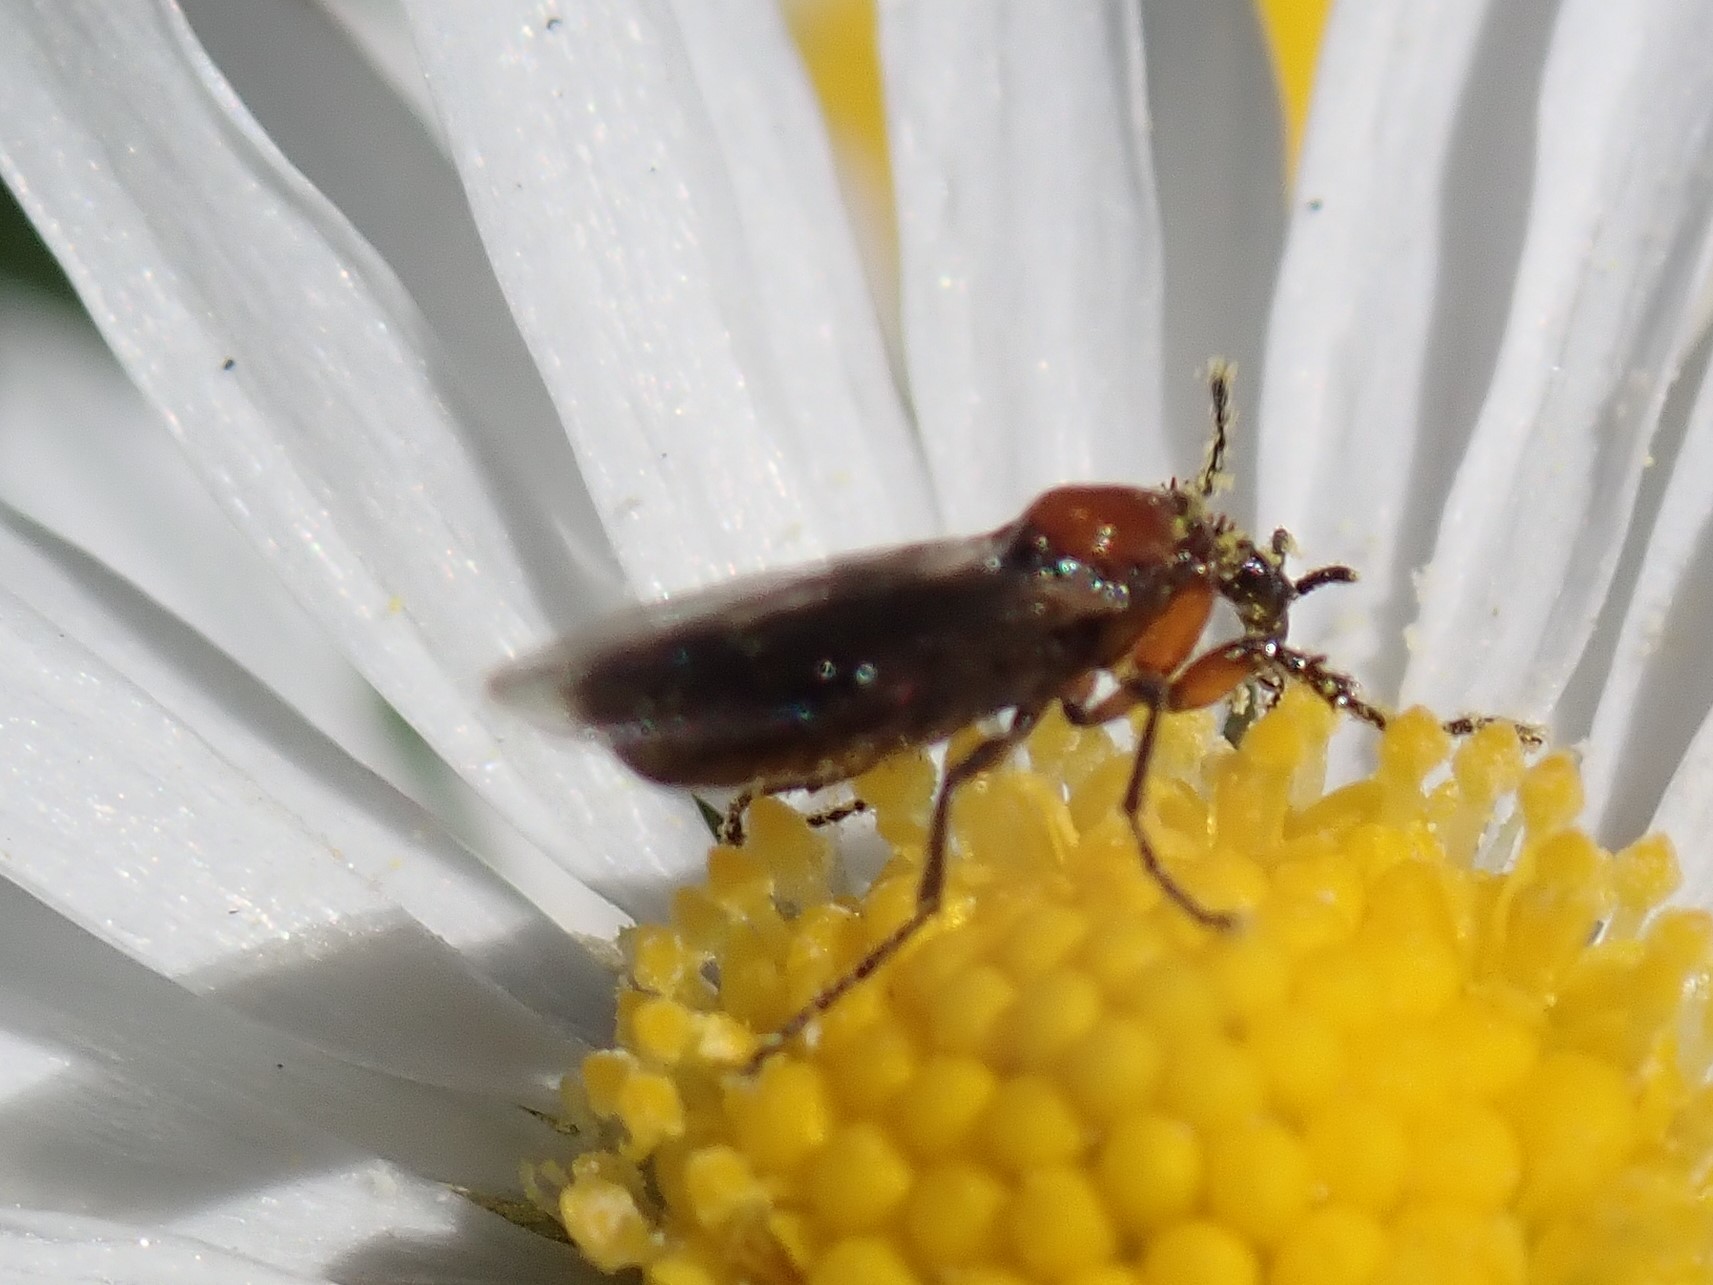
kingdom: Animalia
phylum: Arthropoda
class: Insecta
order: Diptera
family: Bibionidae
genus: Dilophus
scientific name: Dilophus strigilatus
